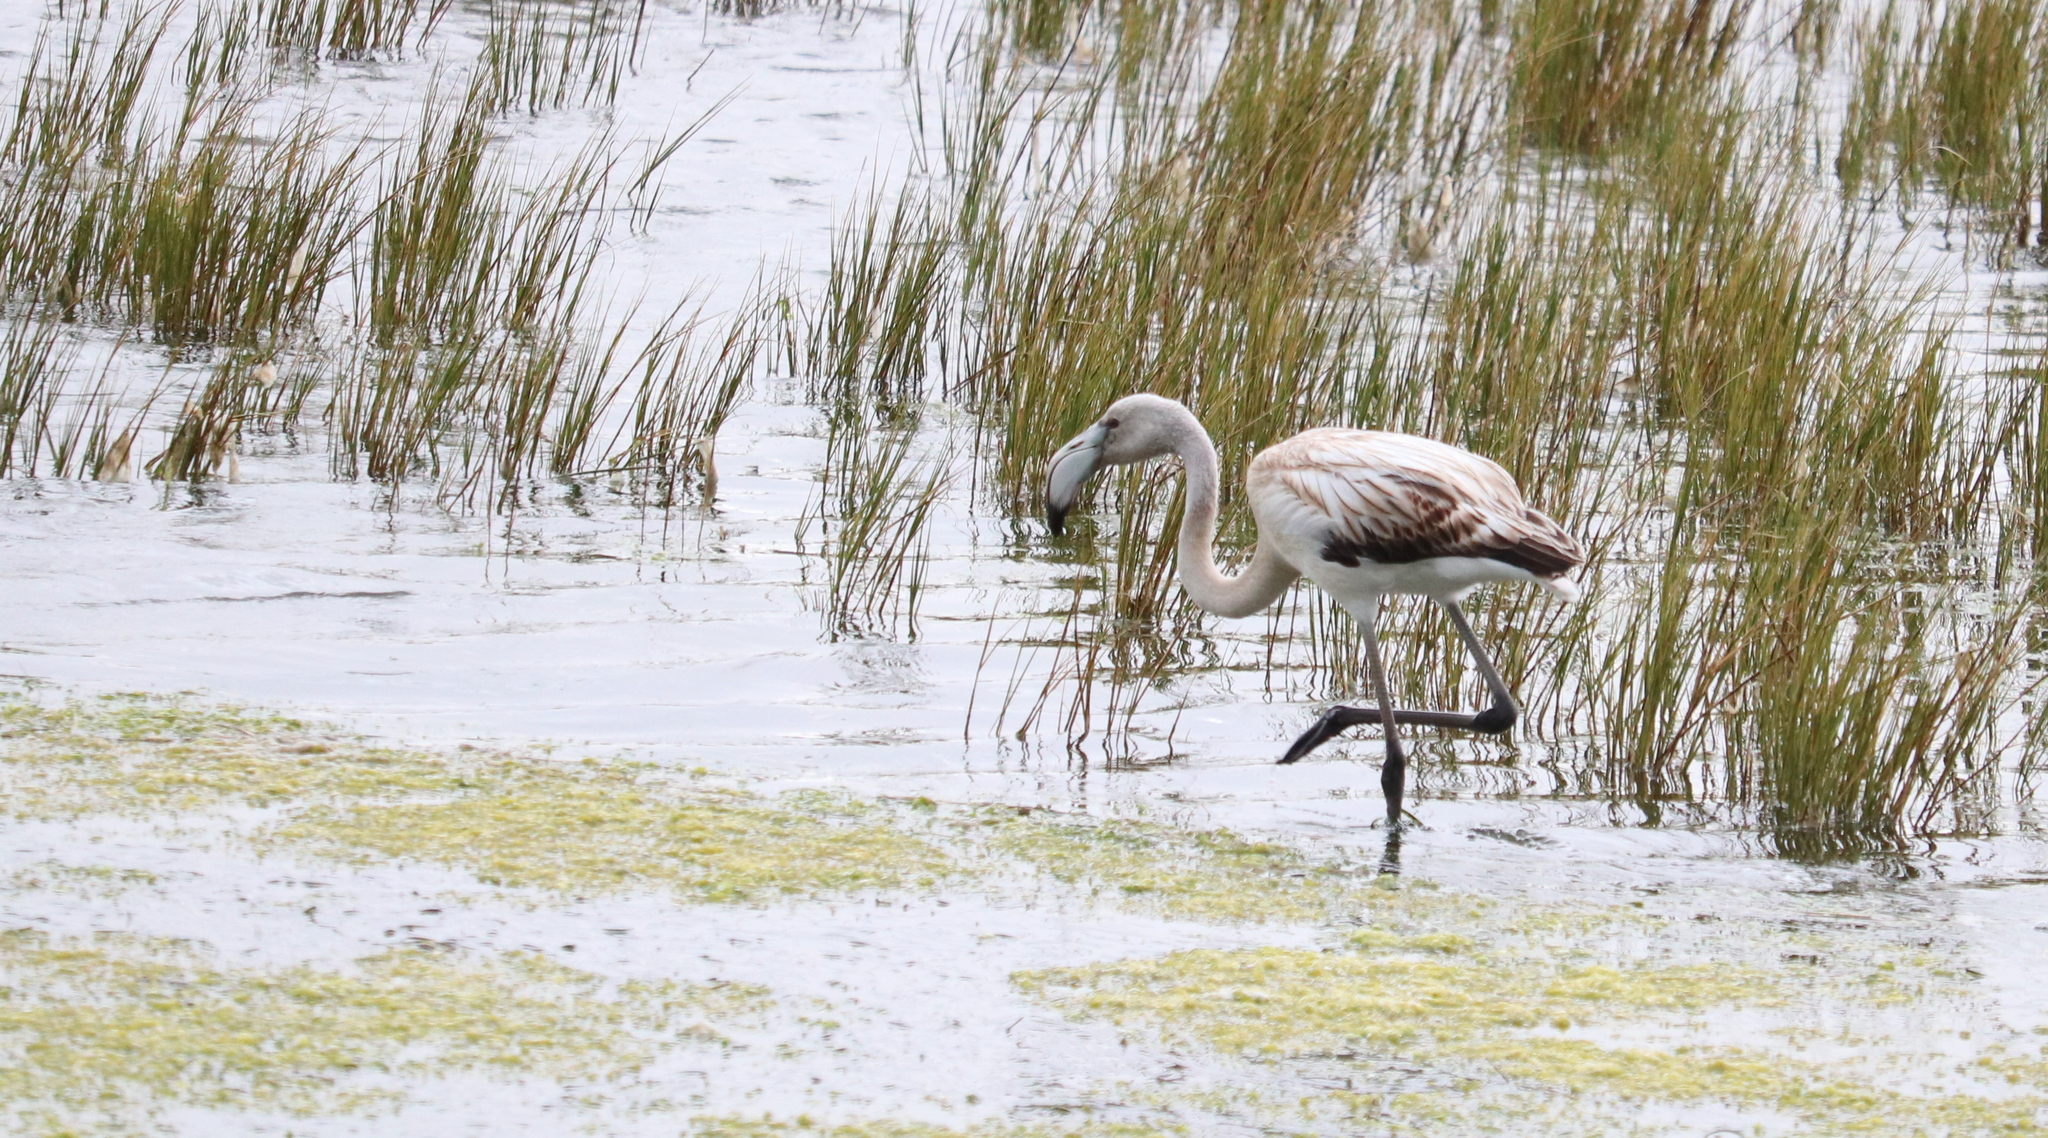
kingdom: Animalia
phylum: Chordata
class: Aves
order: Phoenicopteriformes
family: Phoenicopteridae
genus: Phoenicopterus
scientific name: Phoenicopterus roseus
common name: Greater flamingo
